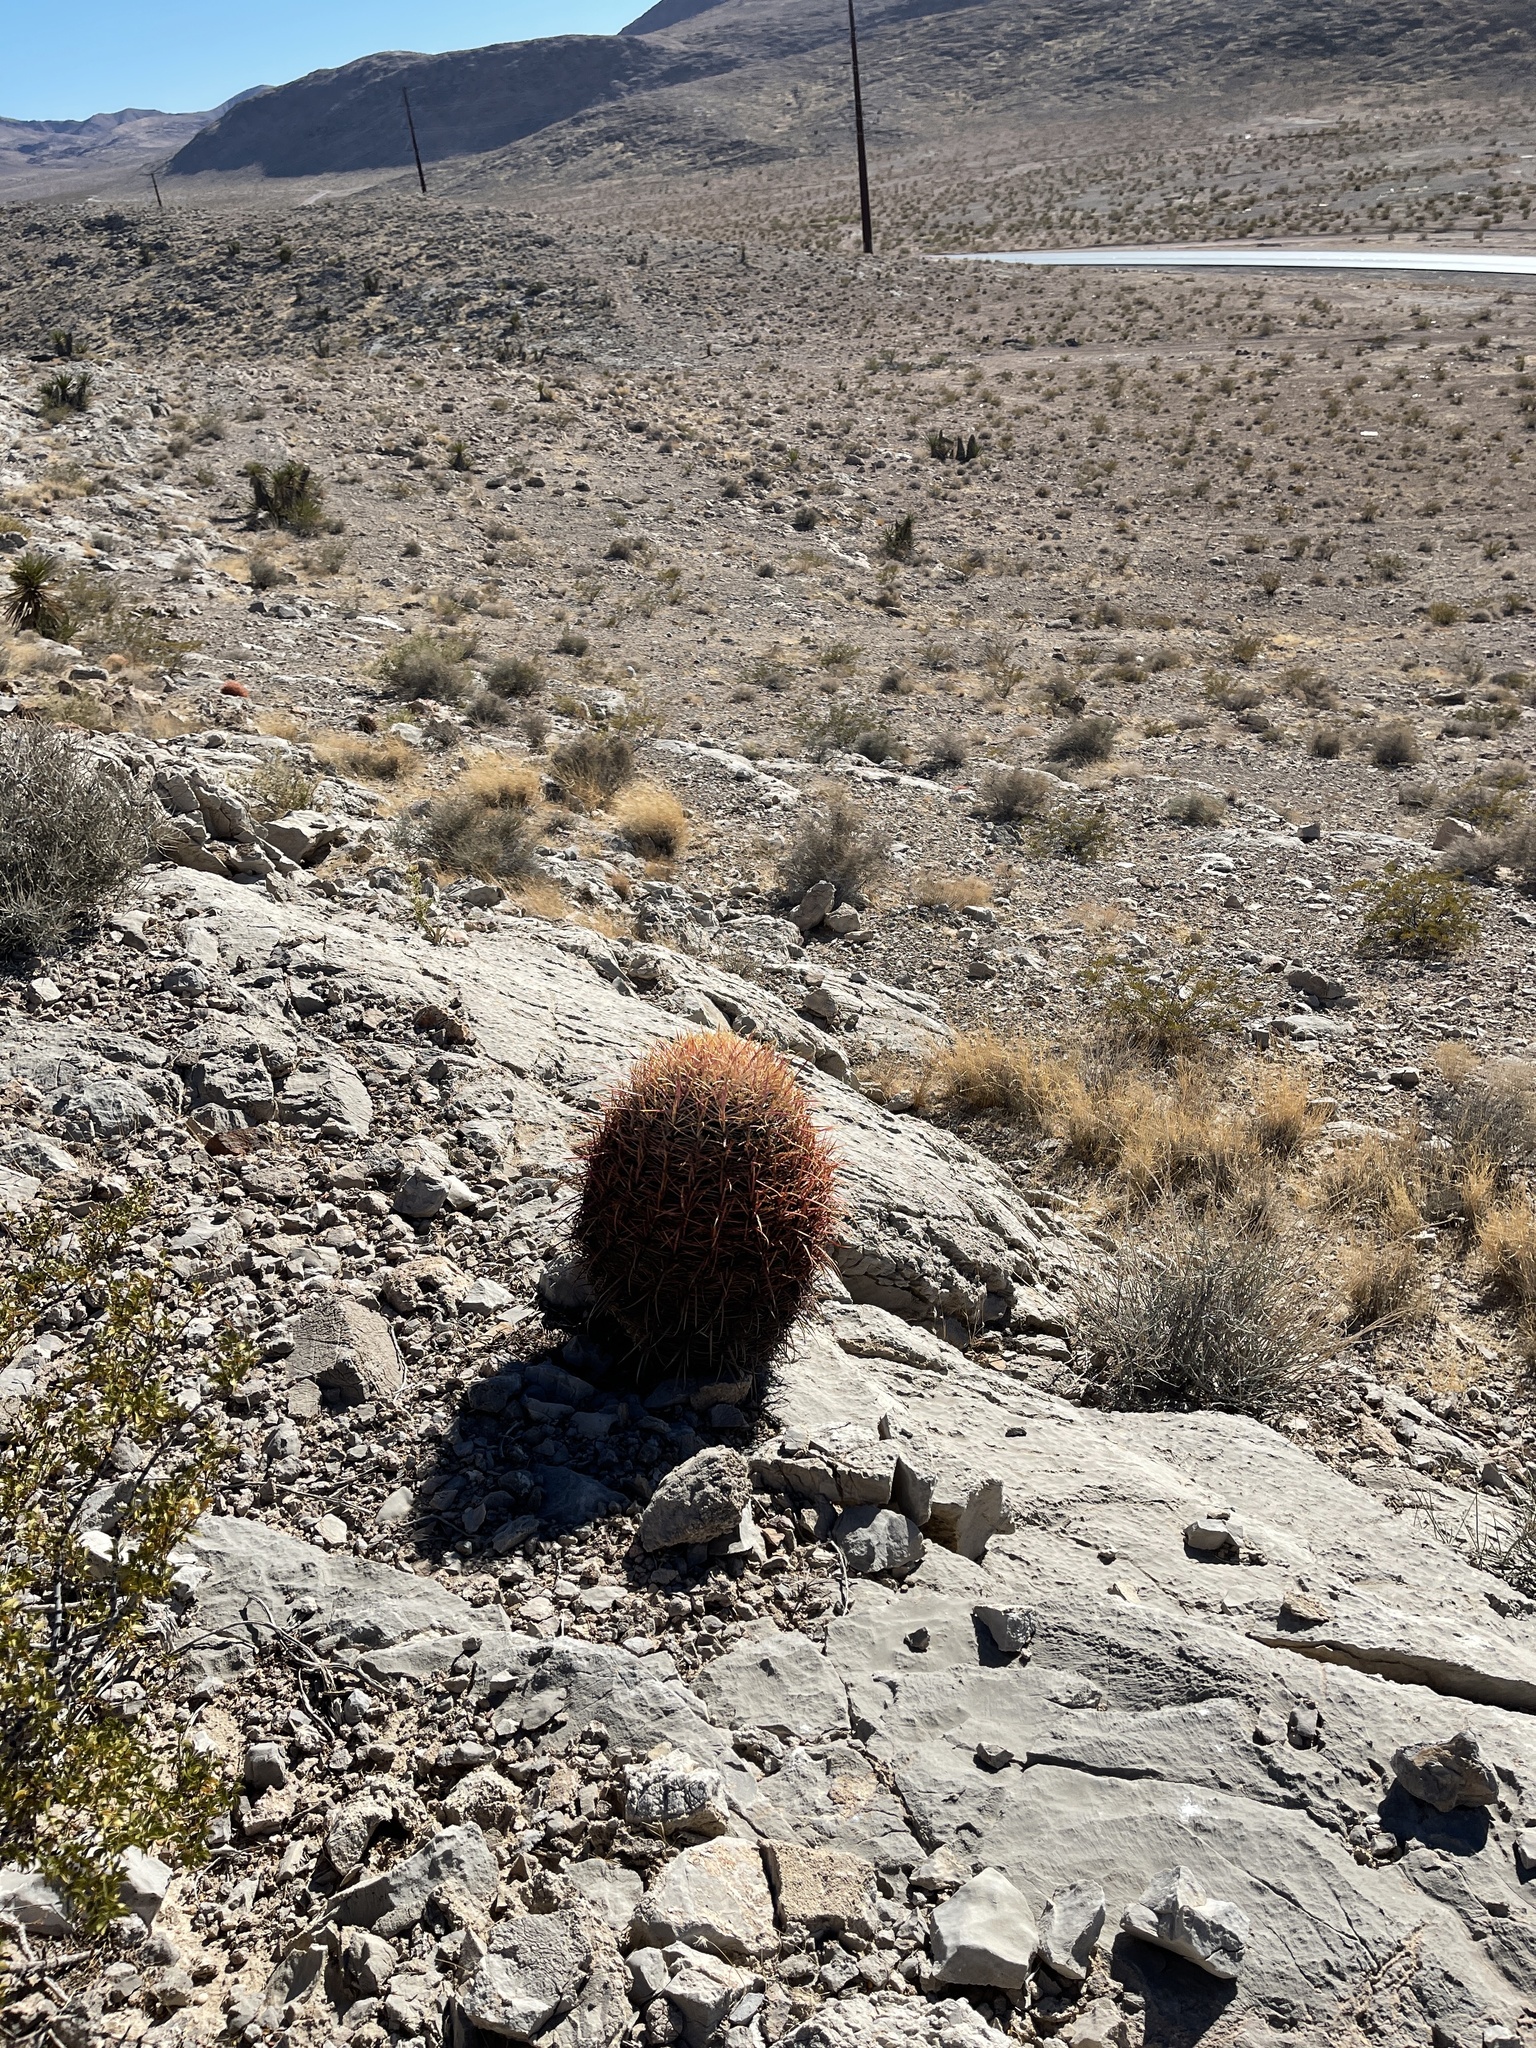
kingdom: Plantae
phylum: Tracheophyta
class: Magnoliopsida
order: Caryophyllales
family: Cactaceae
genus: Ferocactus
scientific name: Ferocactus cylindraceus
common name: California barrel cactus
